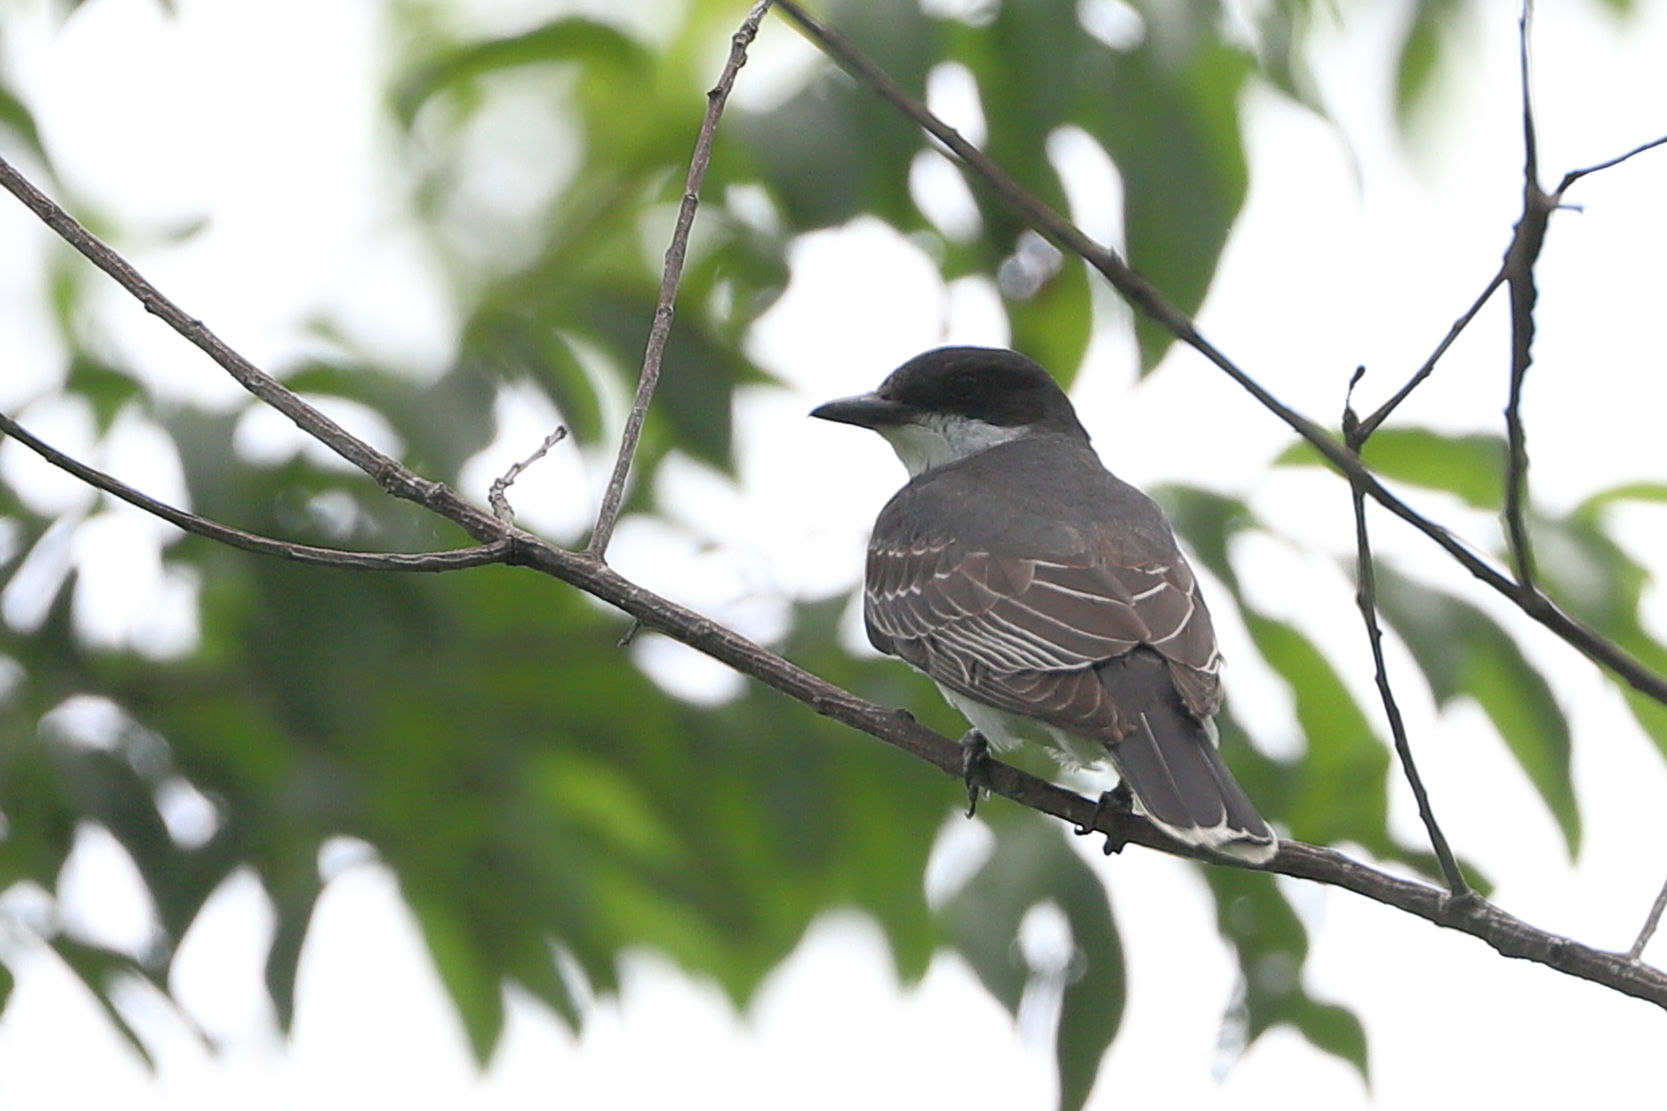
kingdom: Animalia
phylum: Chordata
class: Aves
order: Passeriformes
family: Tyrannidae
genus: Tyrannus
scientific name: Tyrannus tyrannus
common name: Eastern kingbird
